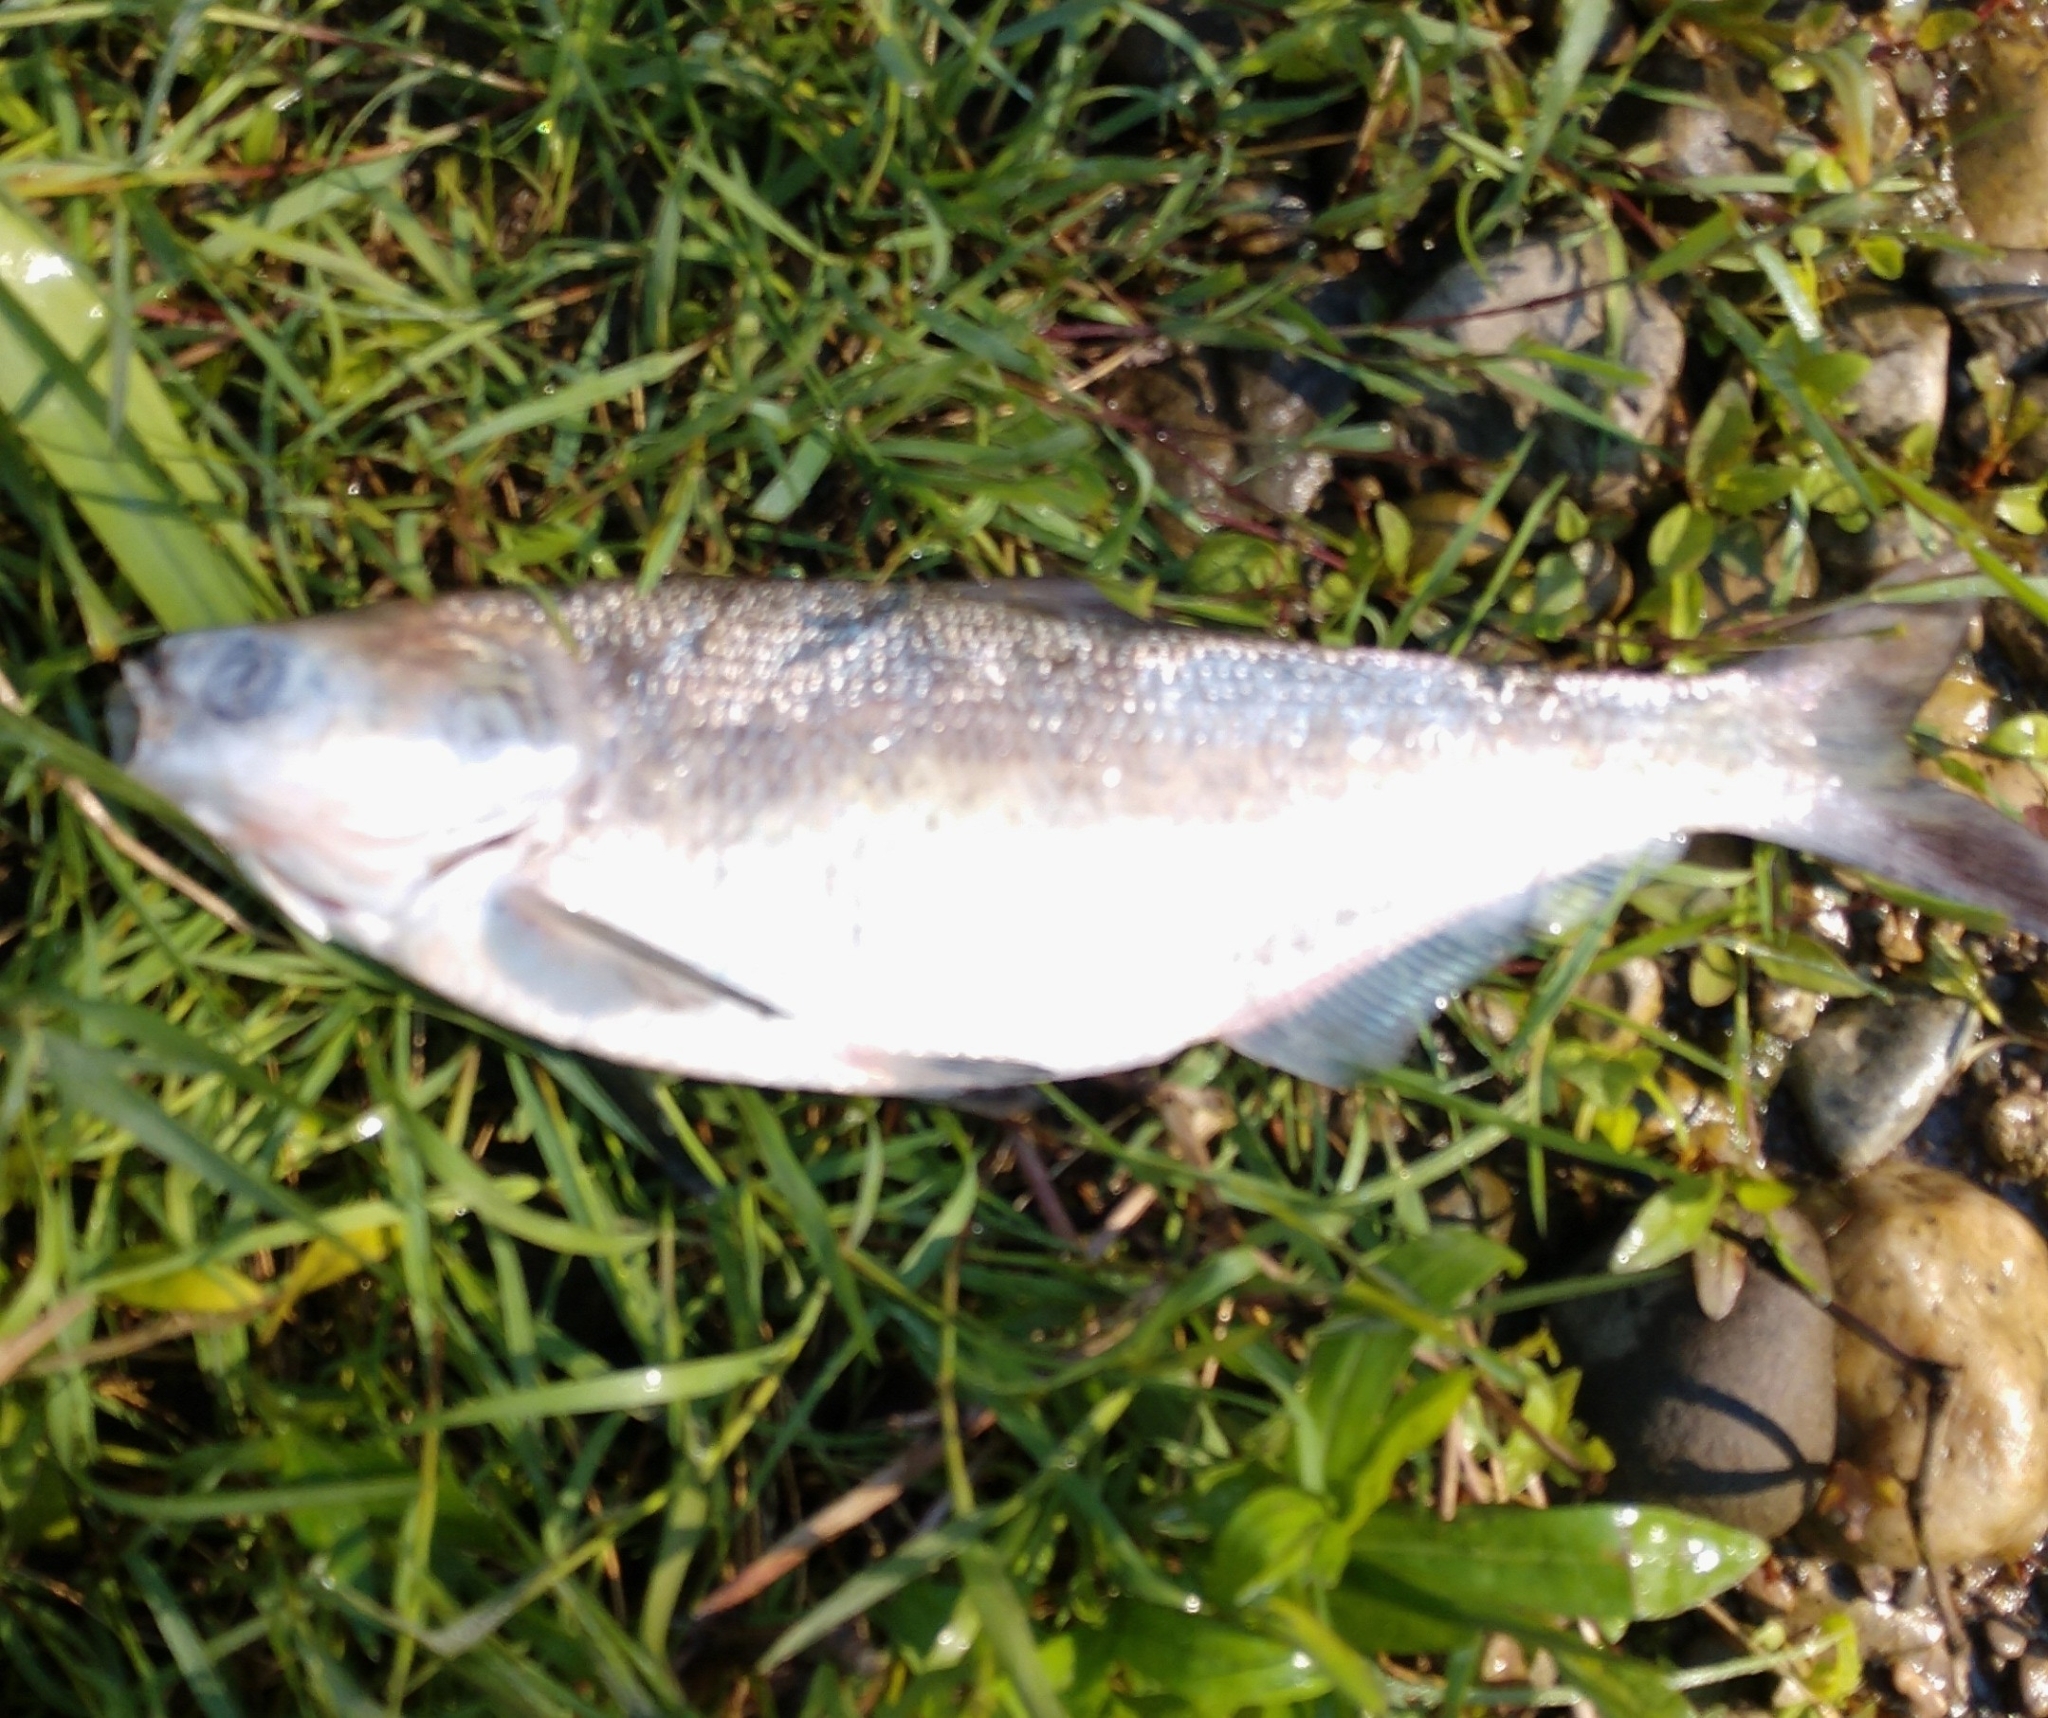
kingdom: Animalia
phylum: Chordata
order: Clupeiformes
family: Clupeidae
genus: Dorosoma
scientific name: Dorosoma cepedianum
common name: Gizzard shad
